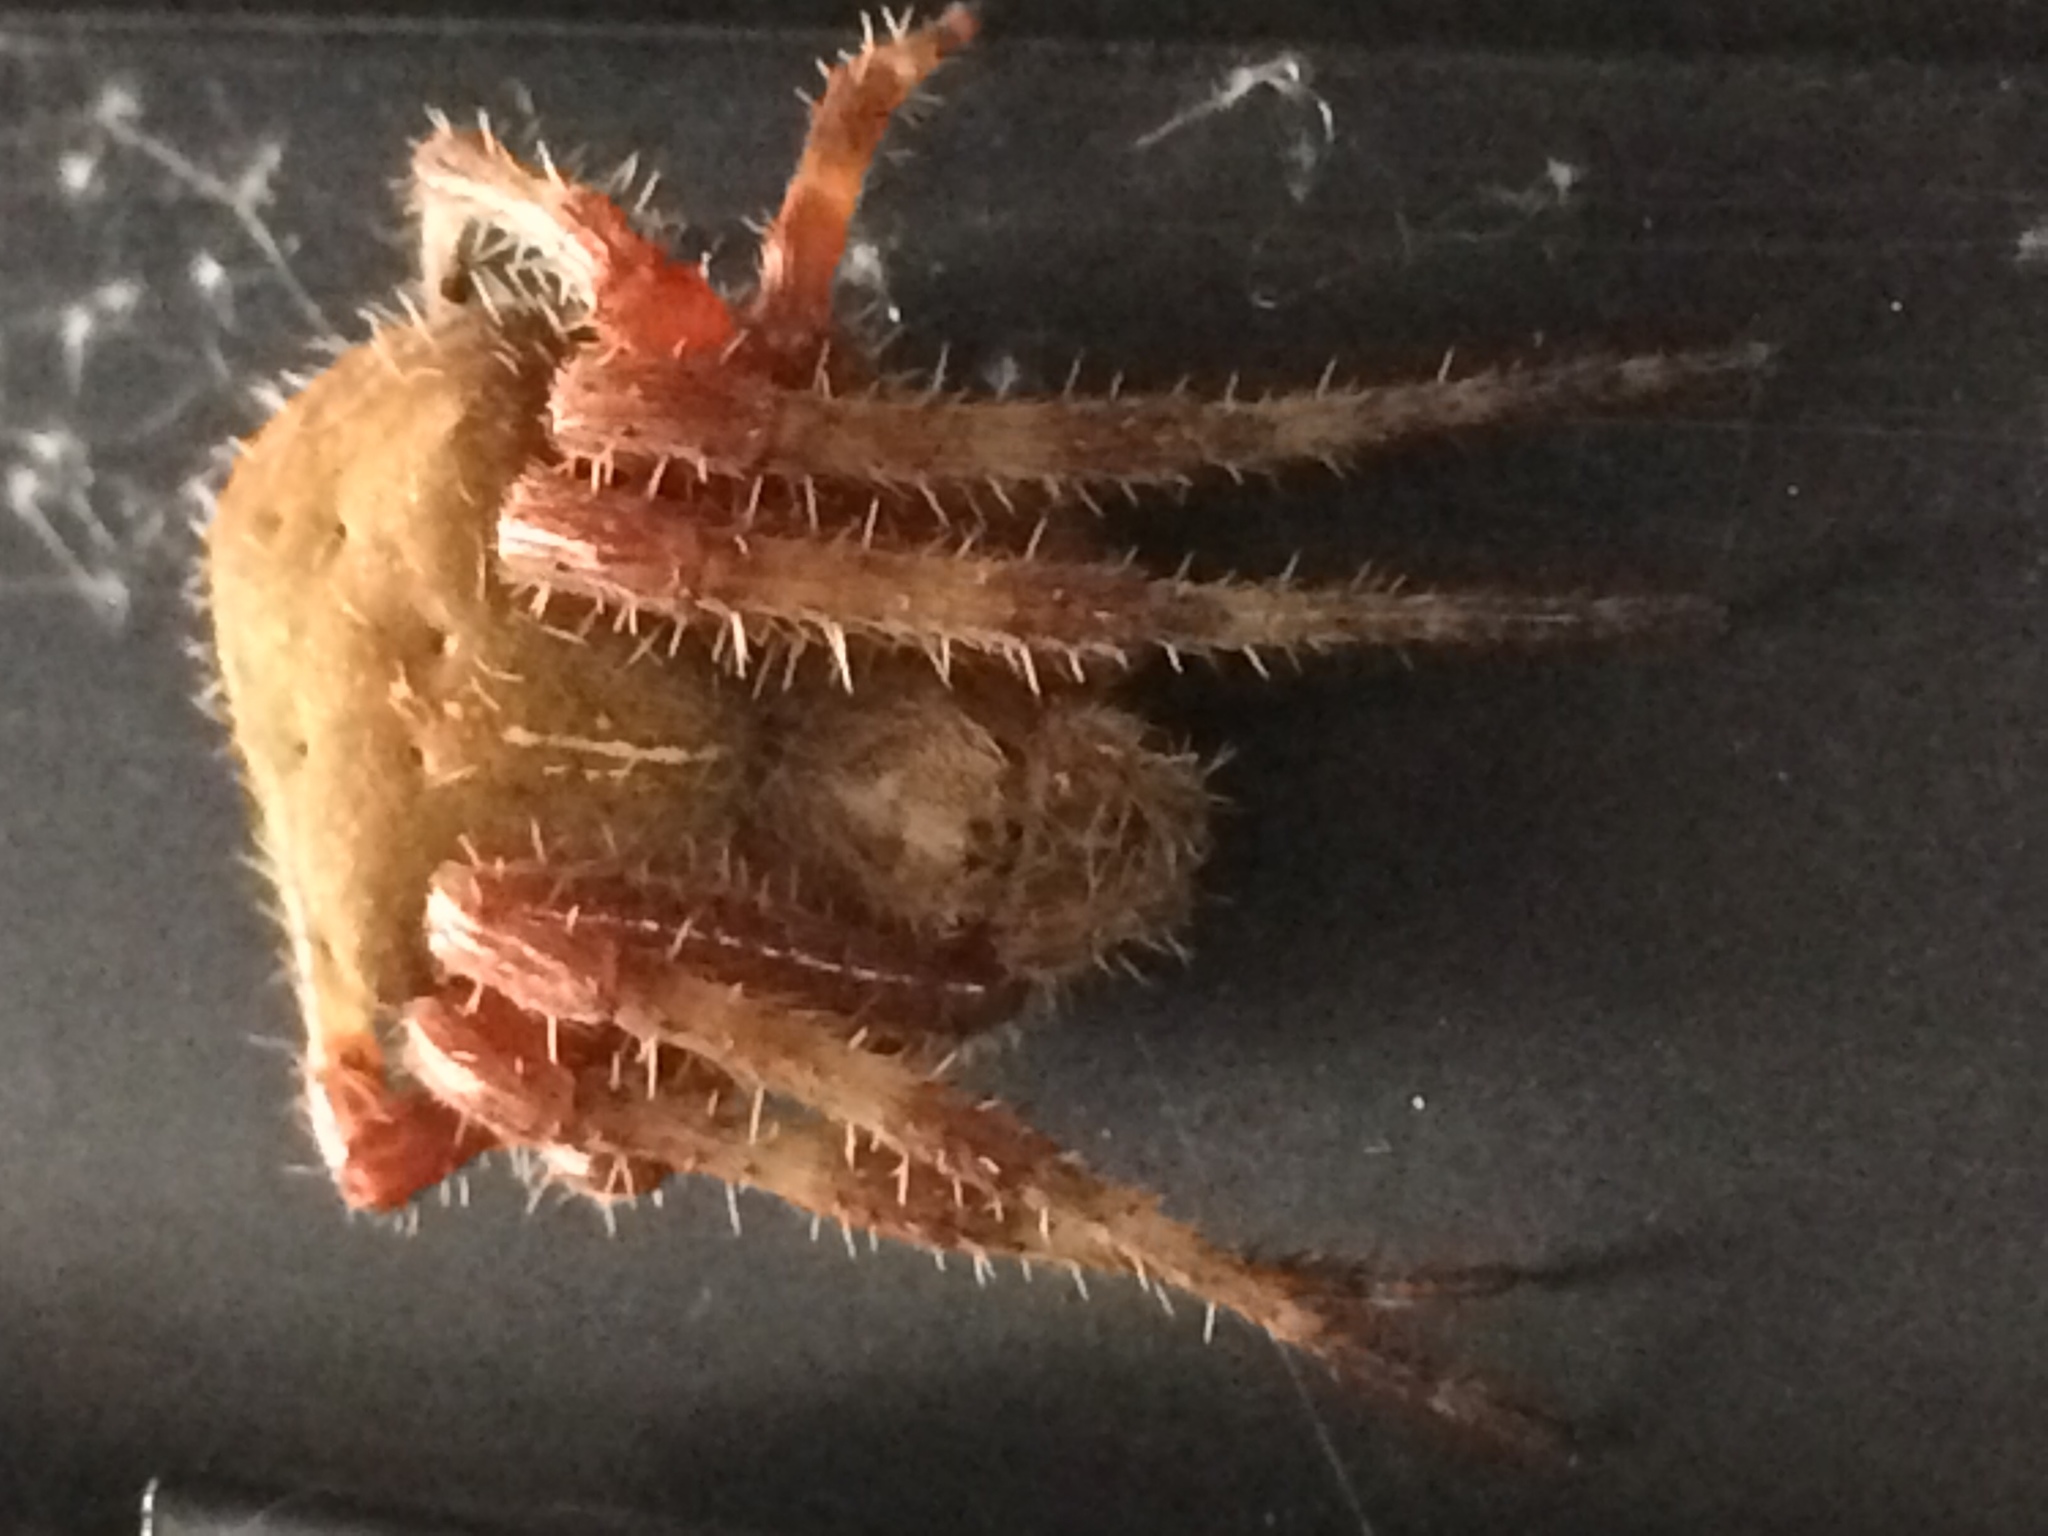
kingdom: Animalia
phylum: Arthropoda
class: Arachnida
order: Araneae
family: Araneidae
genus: Araneus
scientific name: Araneus gemma
